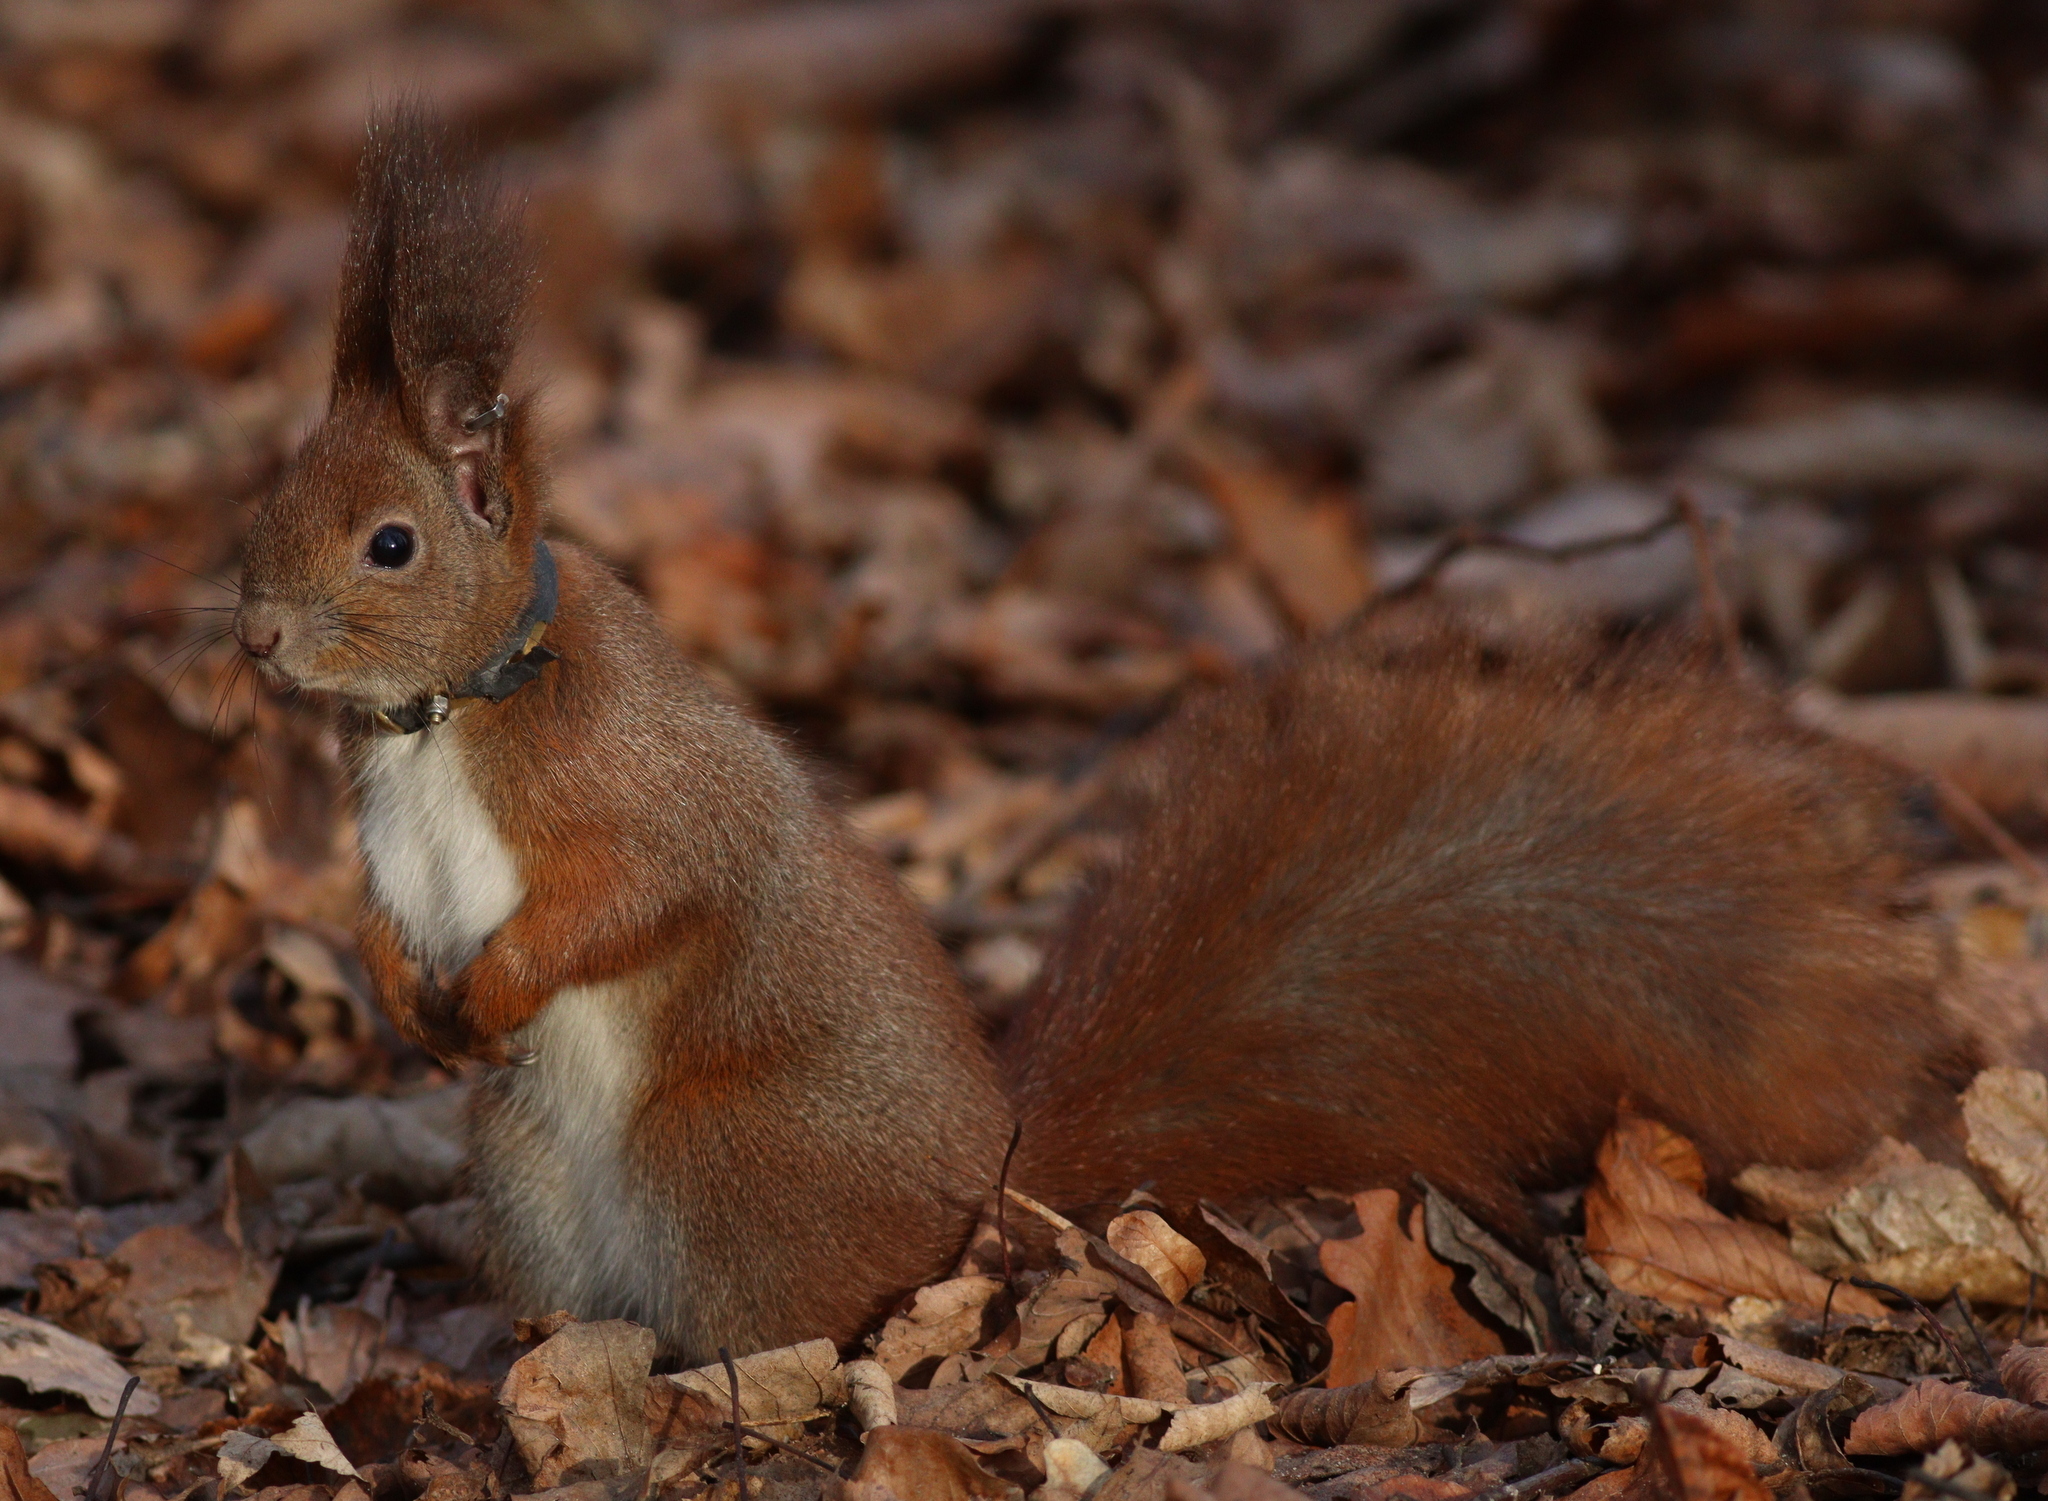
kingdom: Animalia
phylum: Chordata
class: Mammalia
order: Rodentia
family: Sciuridae
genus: Sciurus
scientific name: Sciurus vulgaris
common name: Eurasian red squirrel
